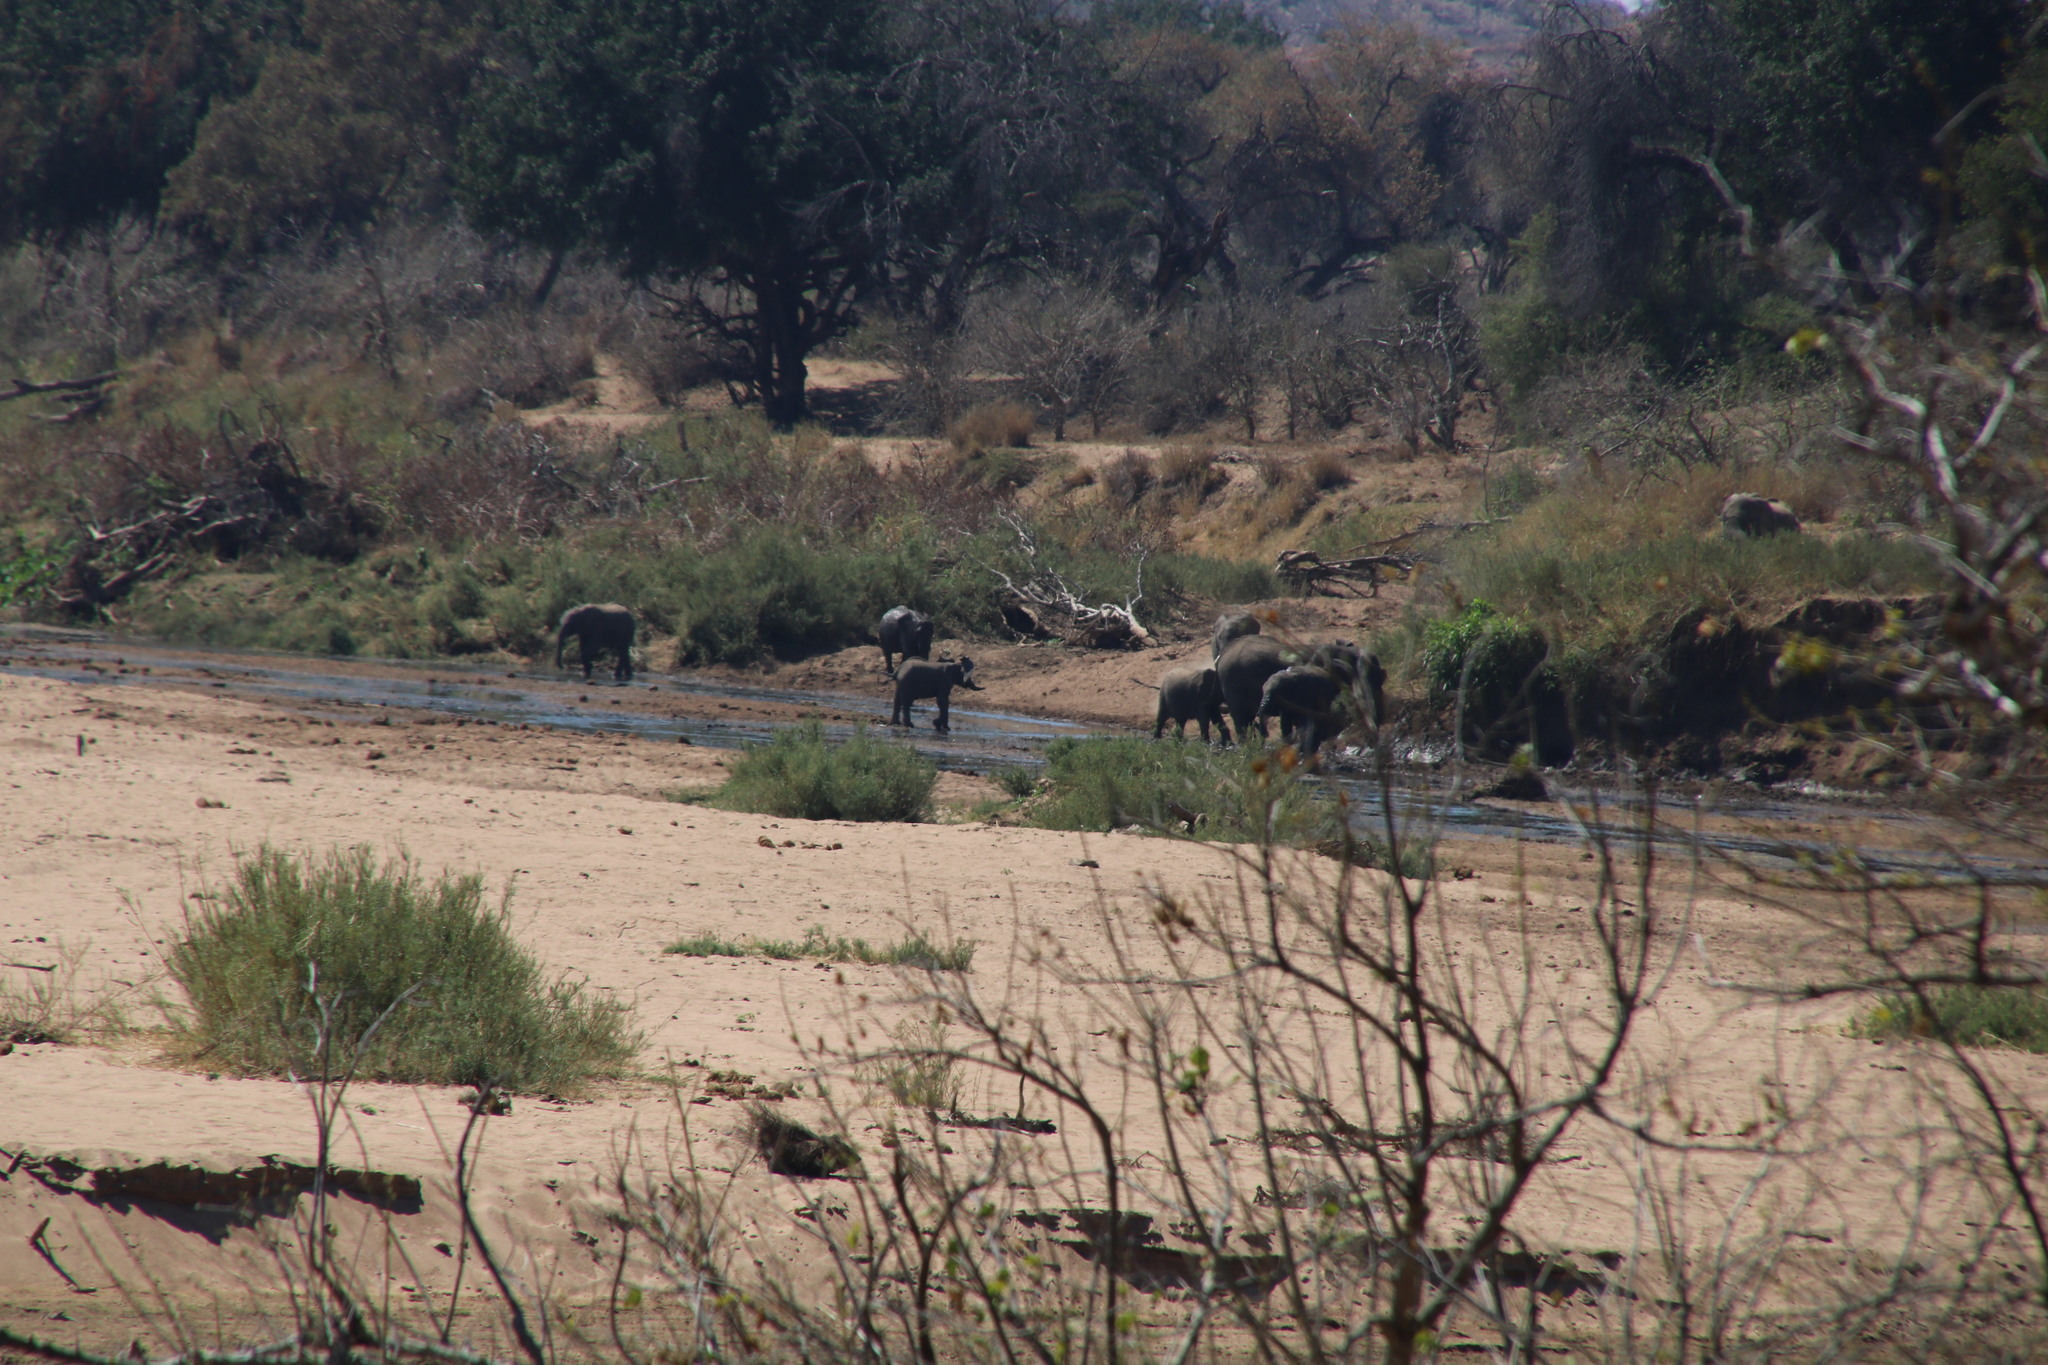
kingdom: Animalia
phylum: Chordata
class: Mammalia
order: Proboscidea
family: Elephantidae
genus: Loxodonta
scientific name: Loxodonta africana
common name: African elephant
